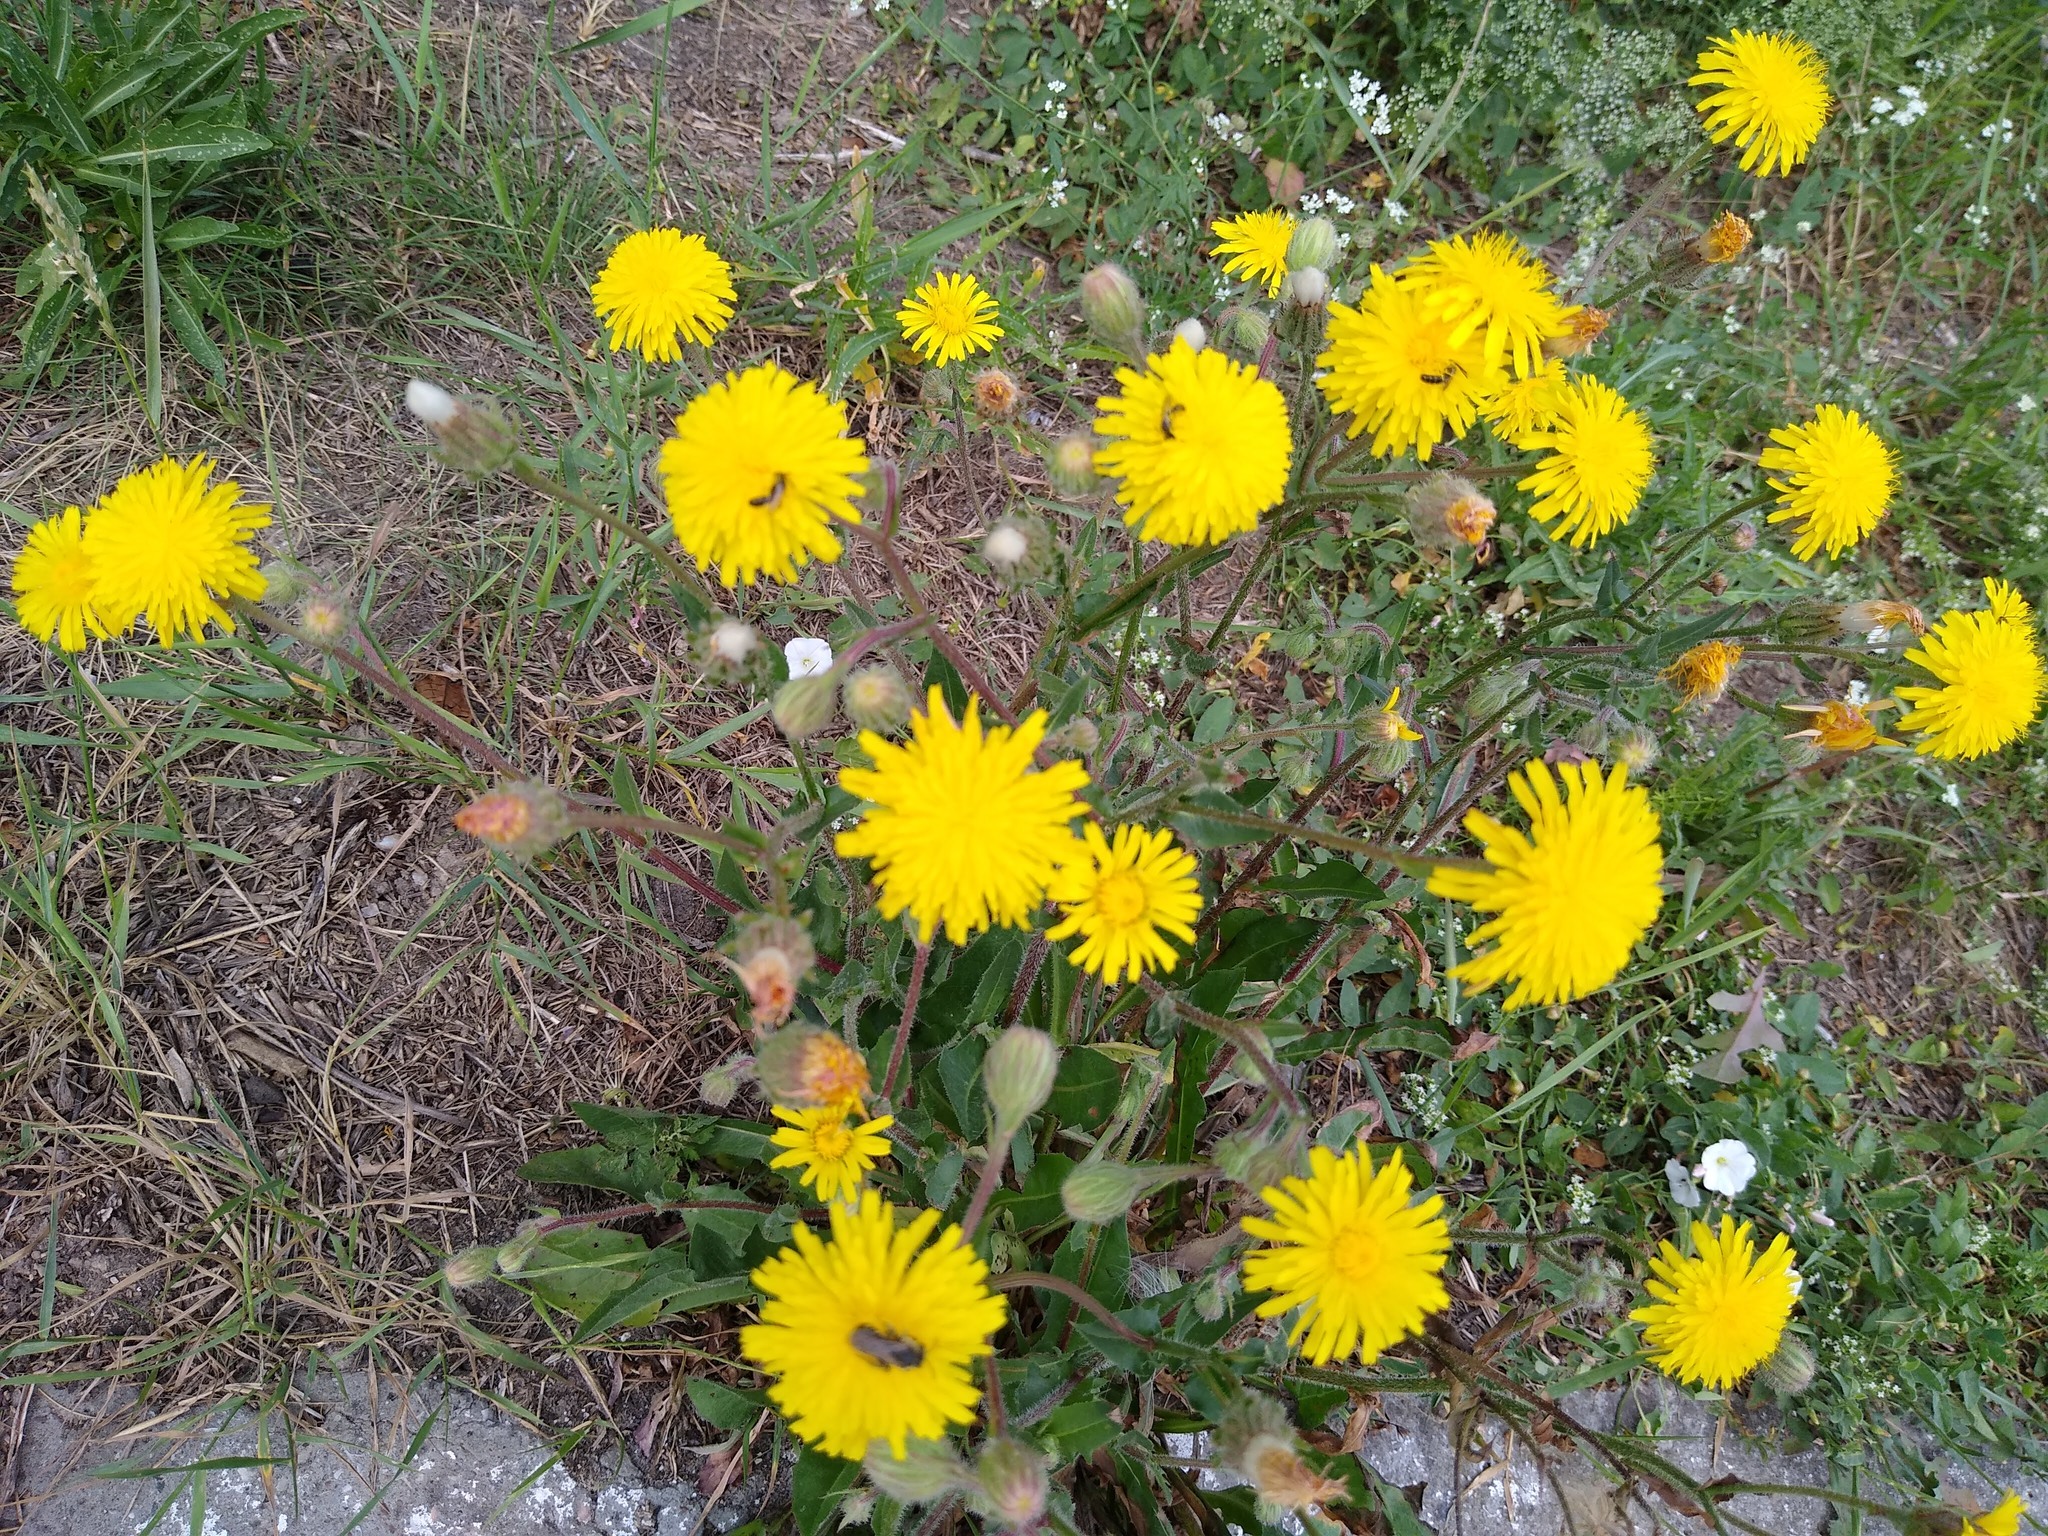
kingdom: Plantae
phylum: Tracheophyta
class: Magnoliopsida
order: Asterales
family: Asteraceae
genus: Crepis
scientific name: Crepis foetida
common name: Stinking hawk's-beard
